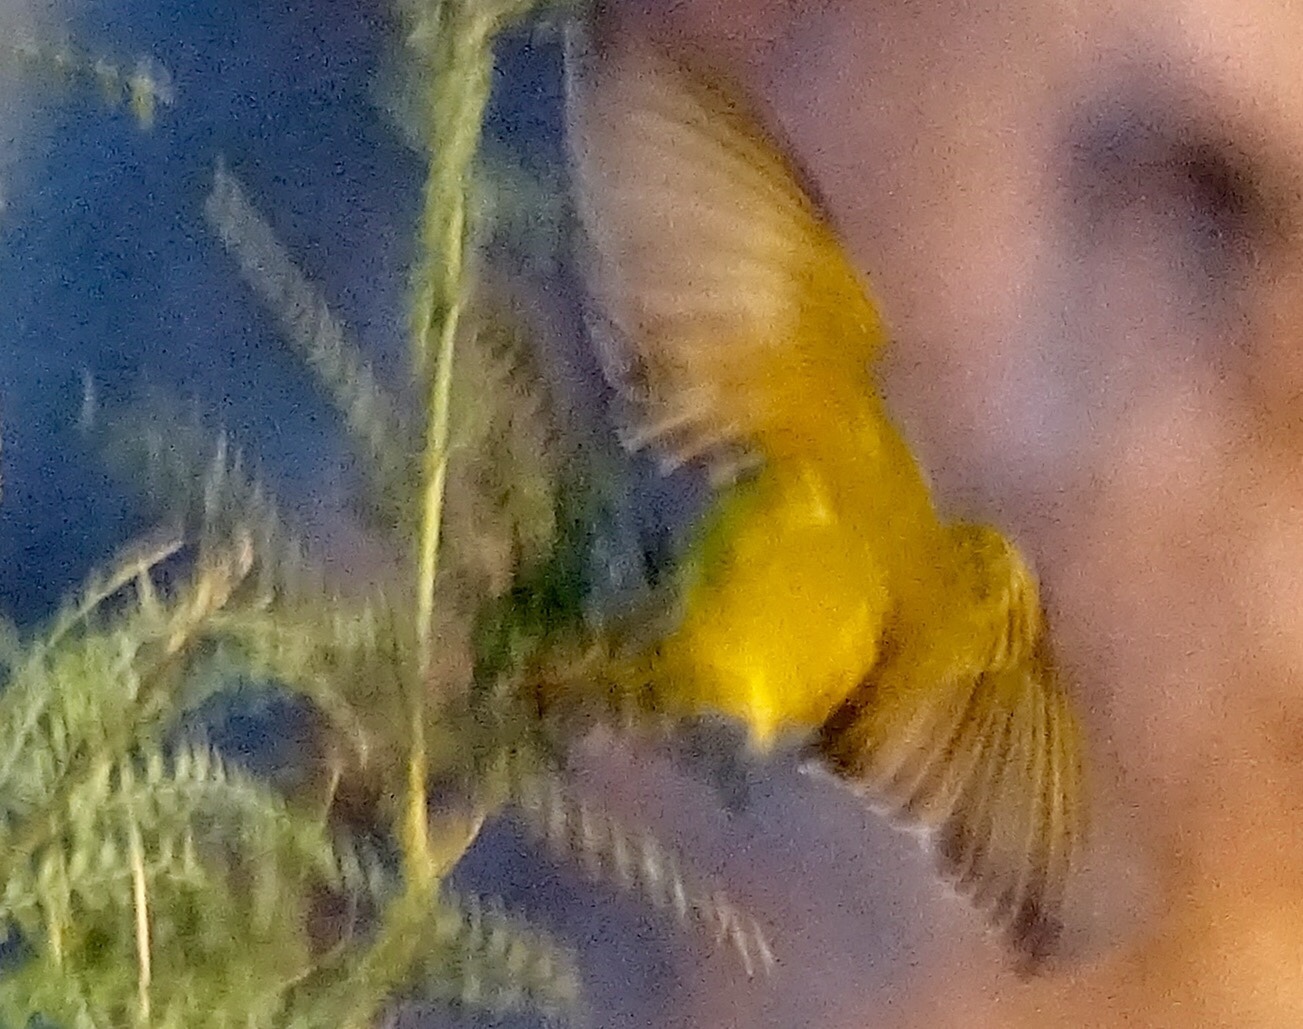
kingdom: Animalia
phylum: Chordata
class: Aves
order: Passeriformes
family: Parulidae
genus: Setophaga
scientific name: Setophaga petechia
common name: Yellow warbler
